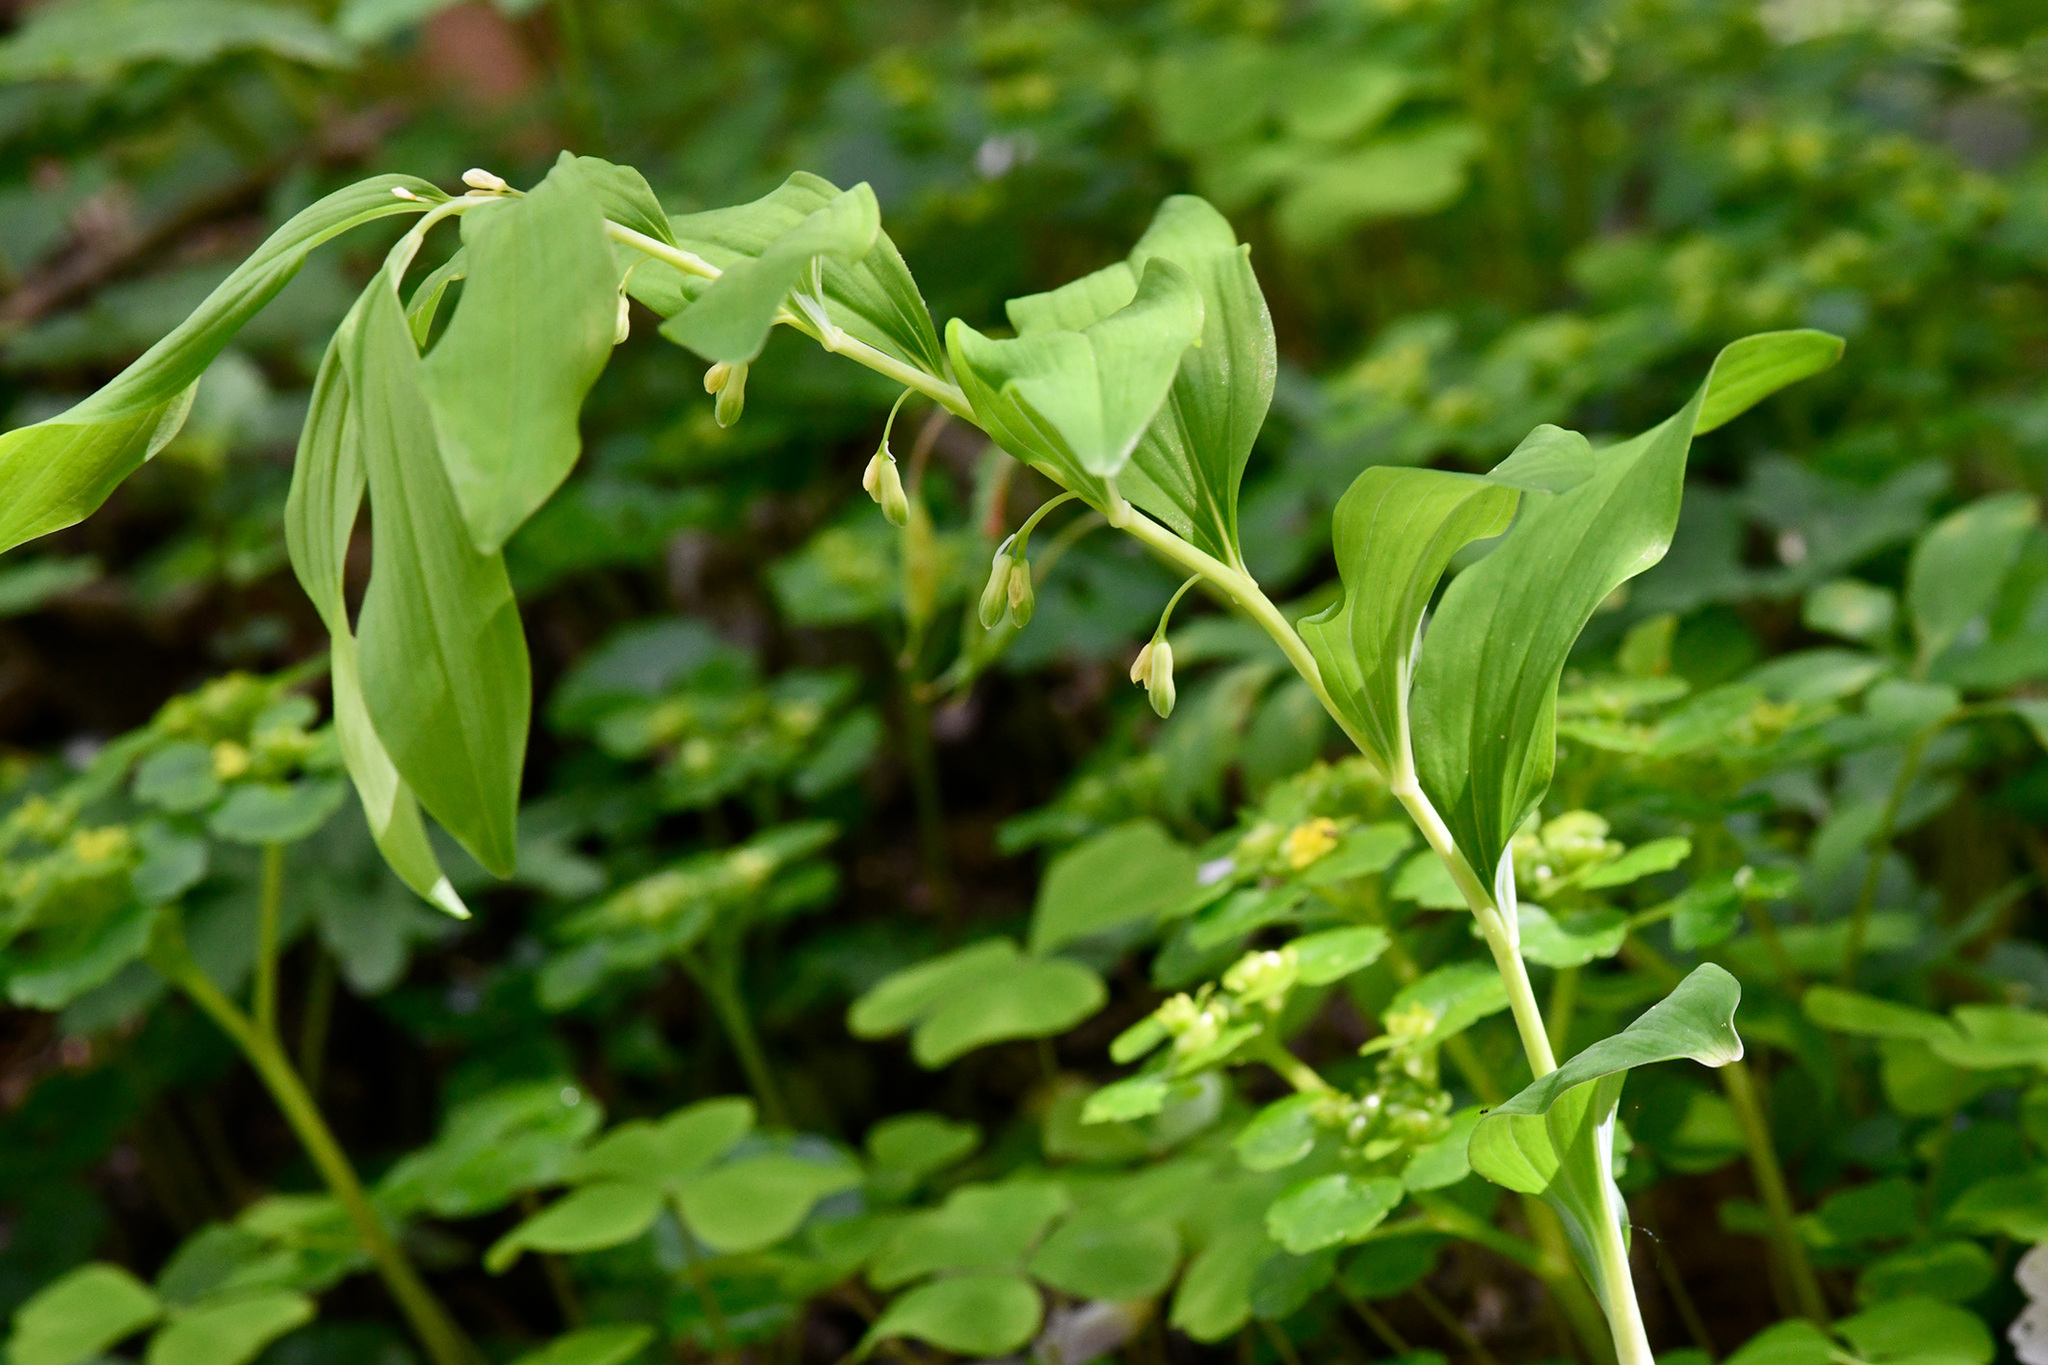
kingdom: Plantae
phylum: Tracheophyta
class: Liliopsida
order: Asparagales
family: Asparagaceae
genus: Polygonatum
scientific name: Polygonatum multiflorum
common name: Solomon's-seal
